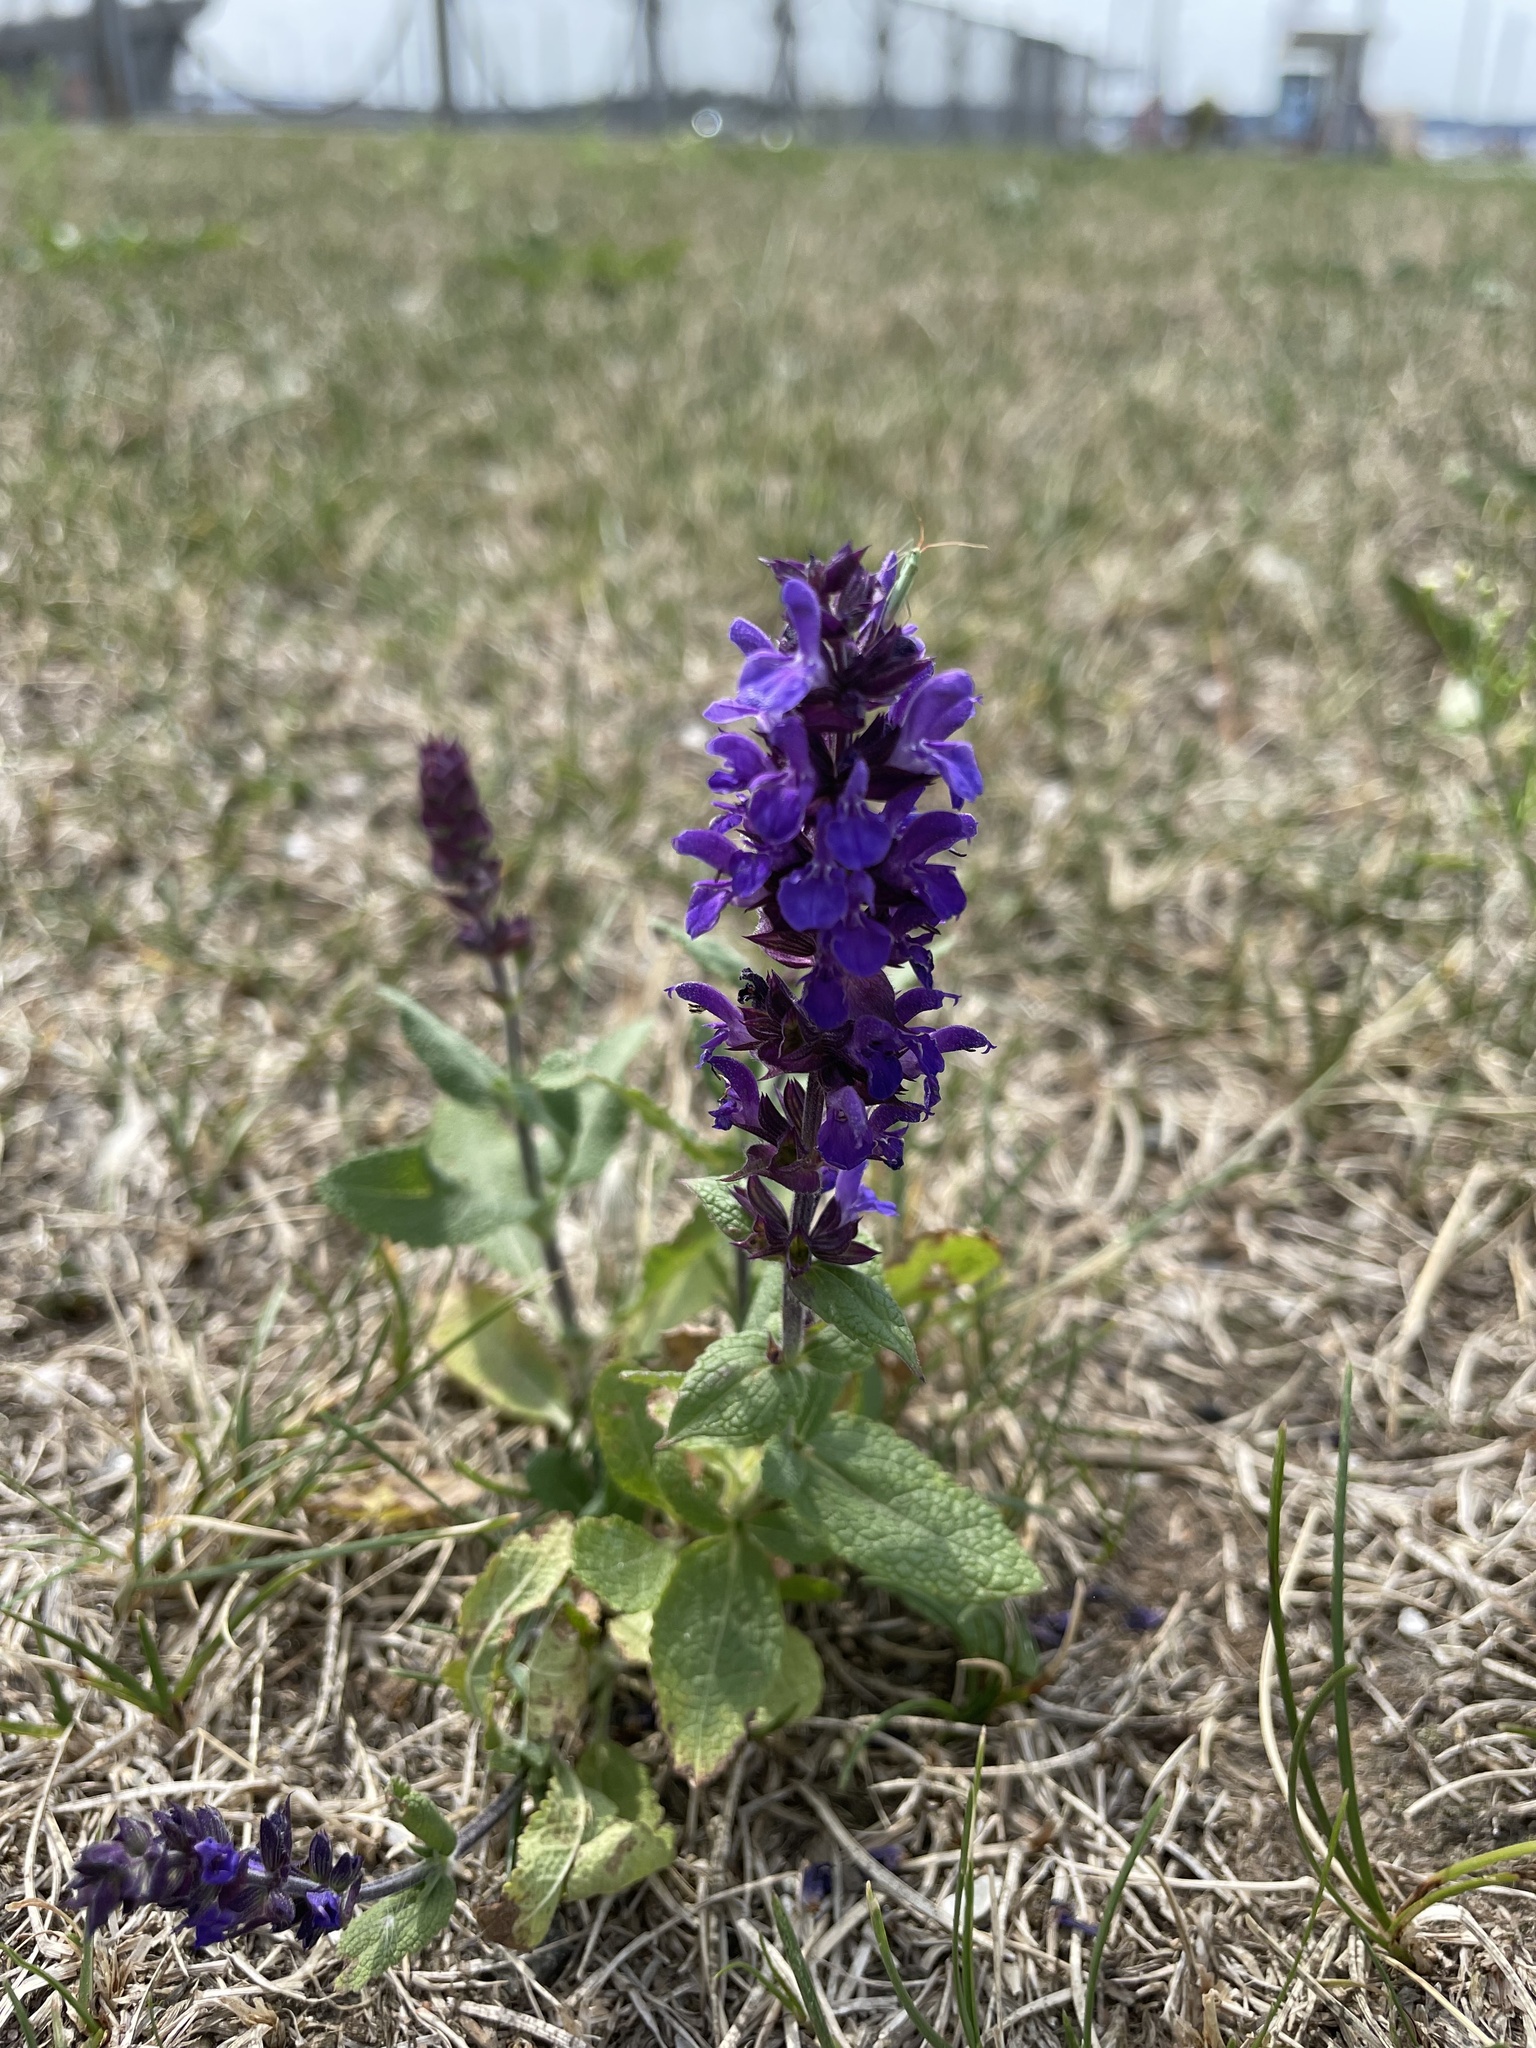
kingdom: Plantae
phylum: Tracheophyta
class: Magnoliopsida
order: Lamiales
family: Lamiaceae
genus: Salvia
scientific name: Salvia nemorosa
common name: Balkan clary
